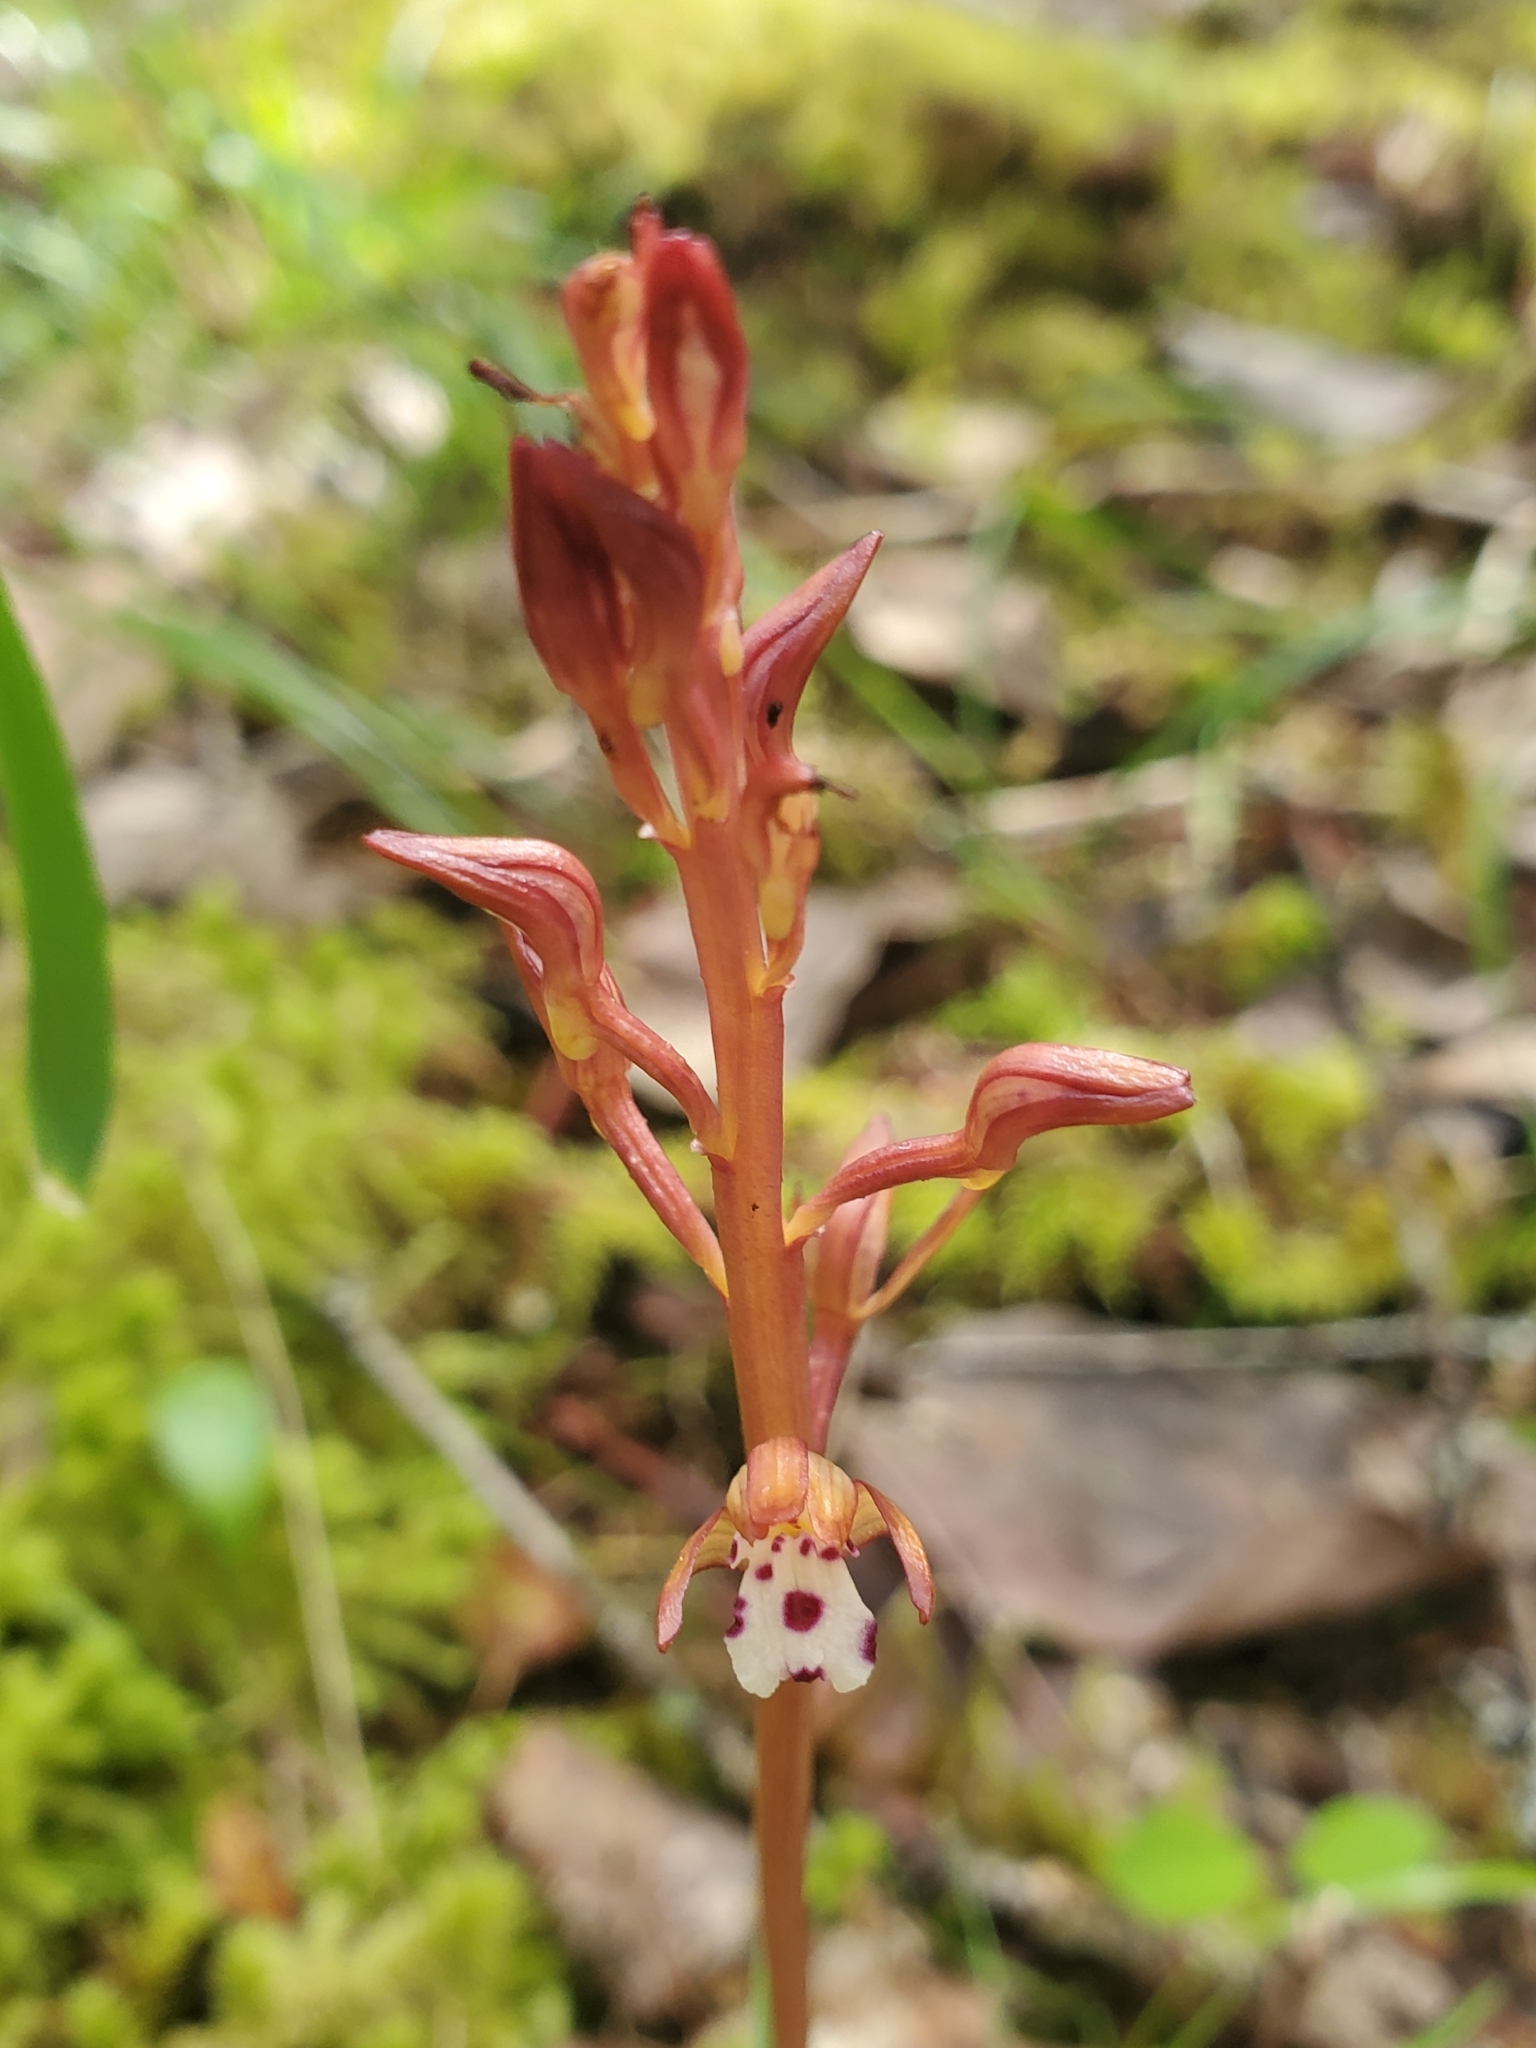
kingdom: Plantae
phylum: Tracheophyta
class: Liliopsida
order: Asparagales
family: Orchidaceae
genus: Corallorhiza
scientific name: Corallorhiza maculata
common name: Spotted coralroot
